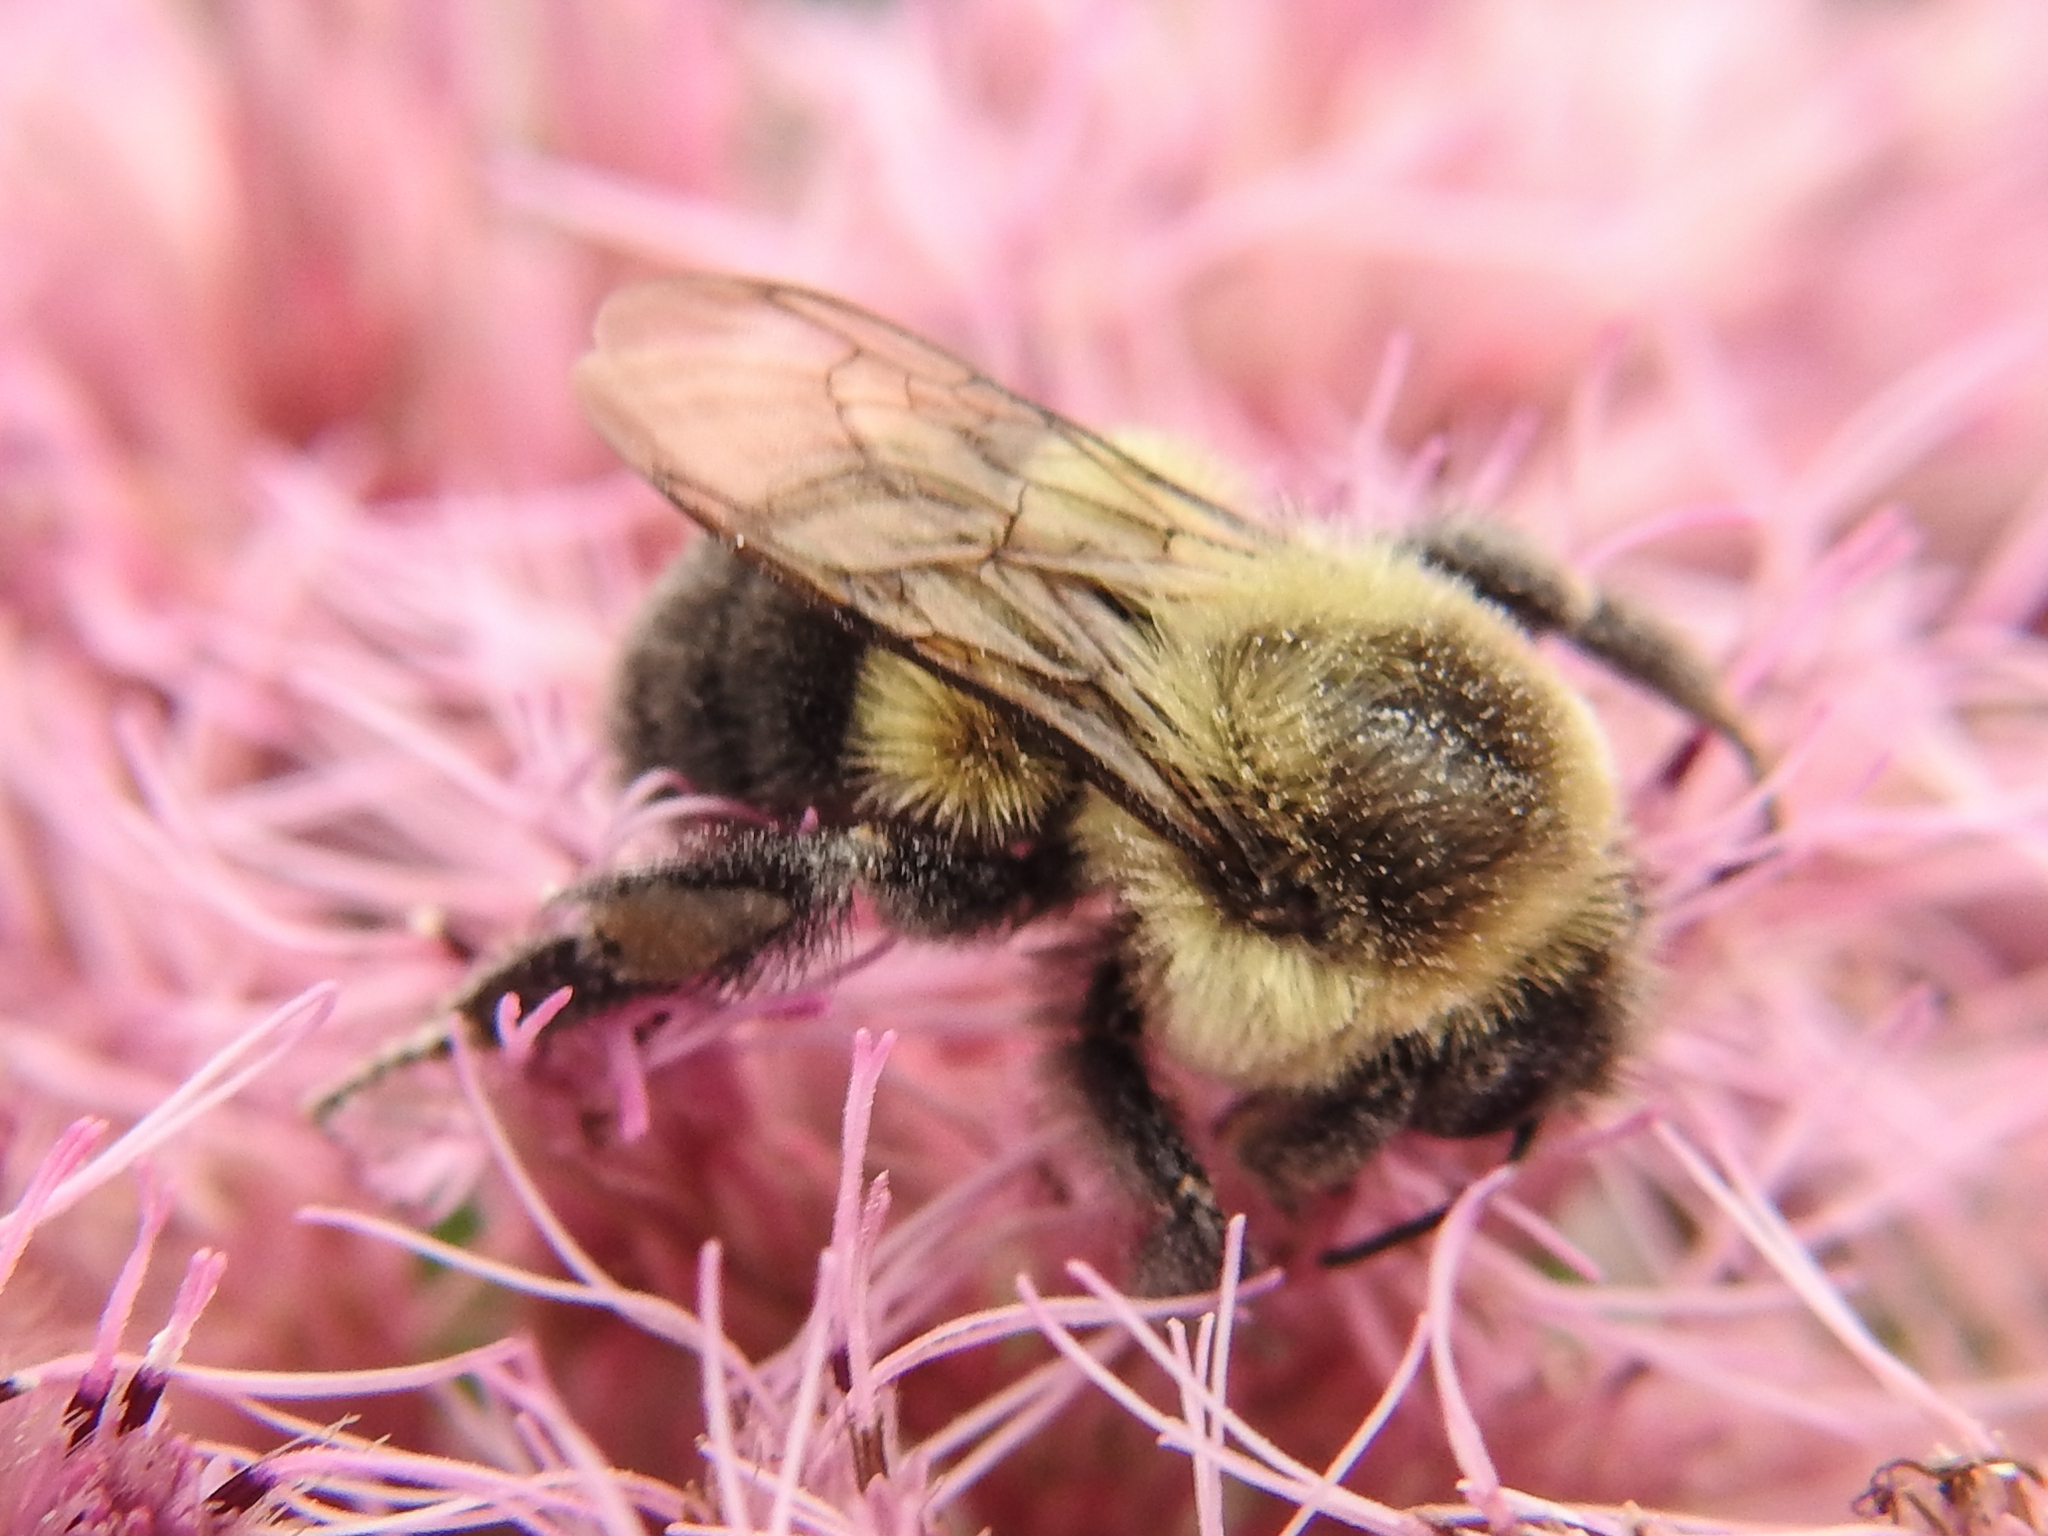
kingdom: Animalia
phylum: Arthropoda
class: Insecta
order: Hymenoptera
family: Apidae
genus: Bombus
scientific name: Bombus impatiens
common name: Common eastern bumble bee
